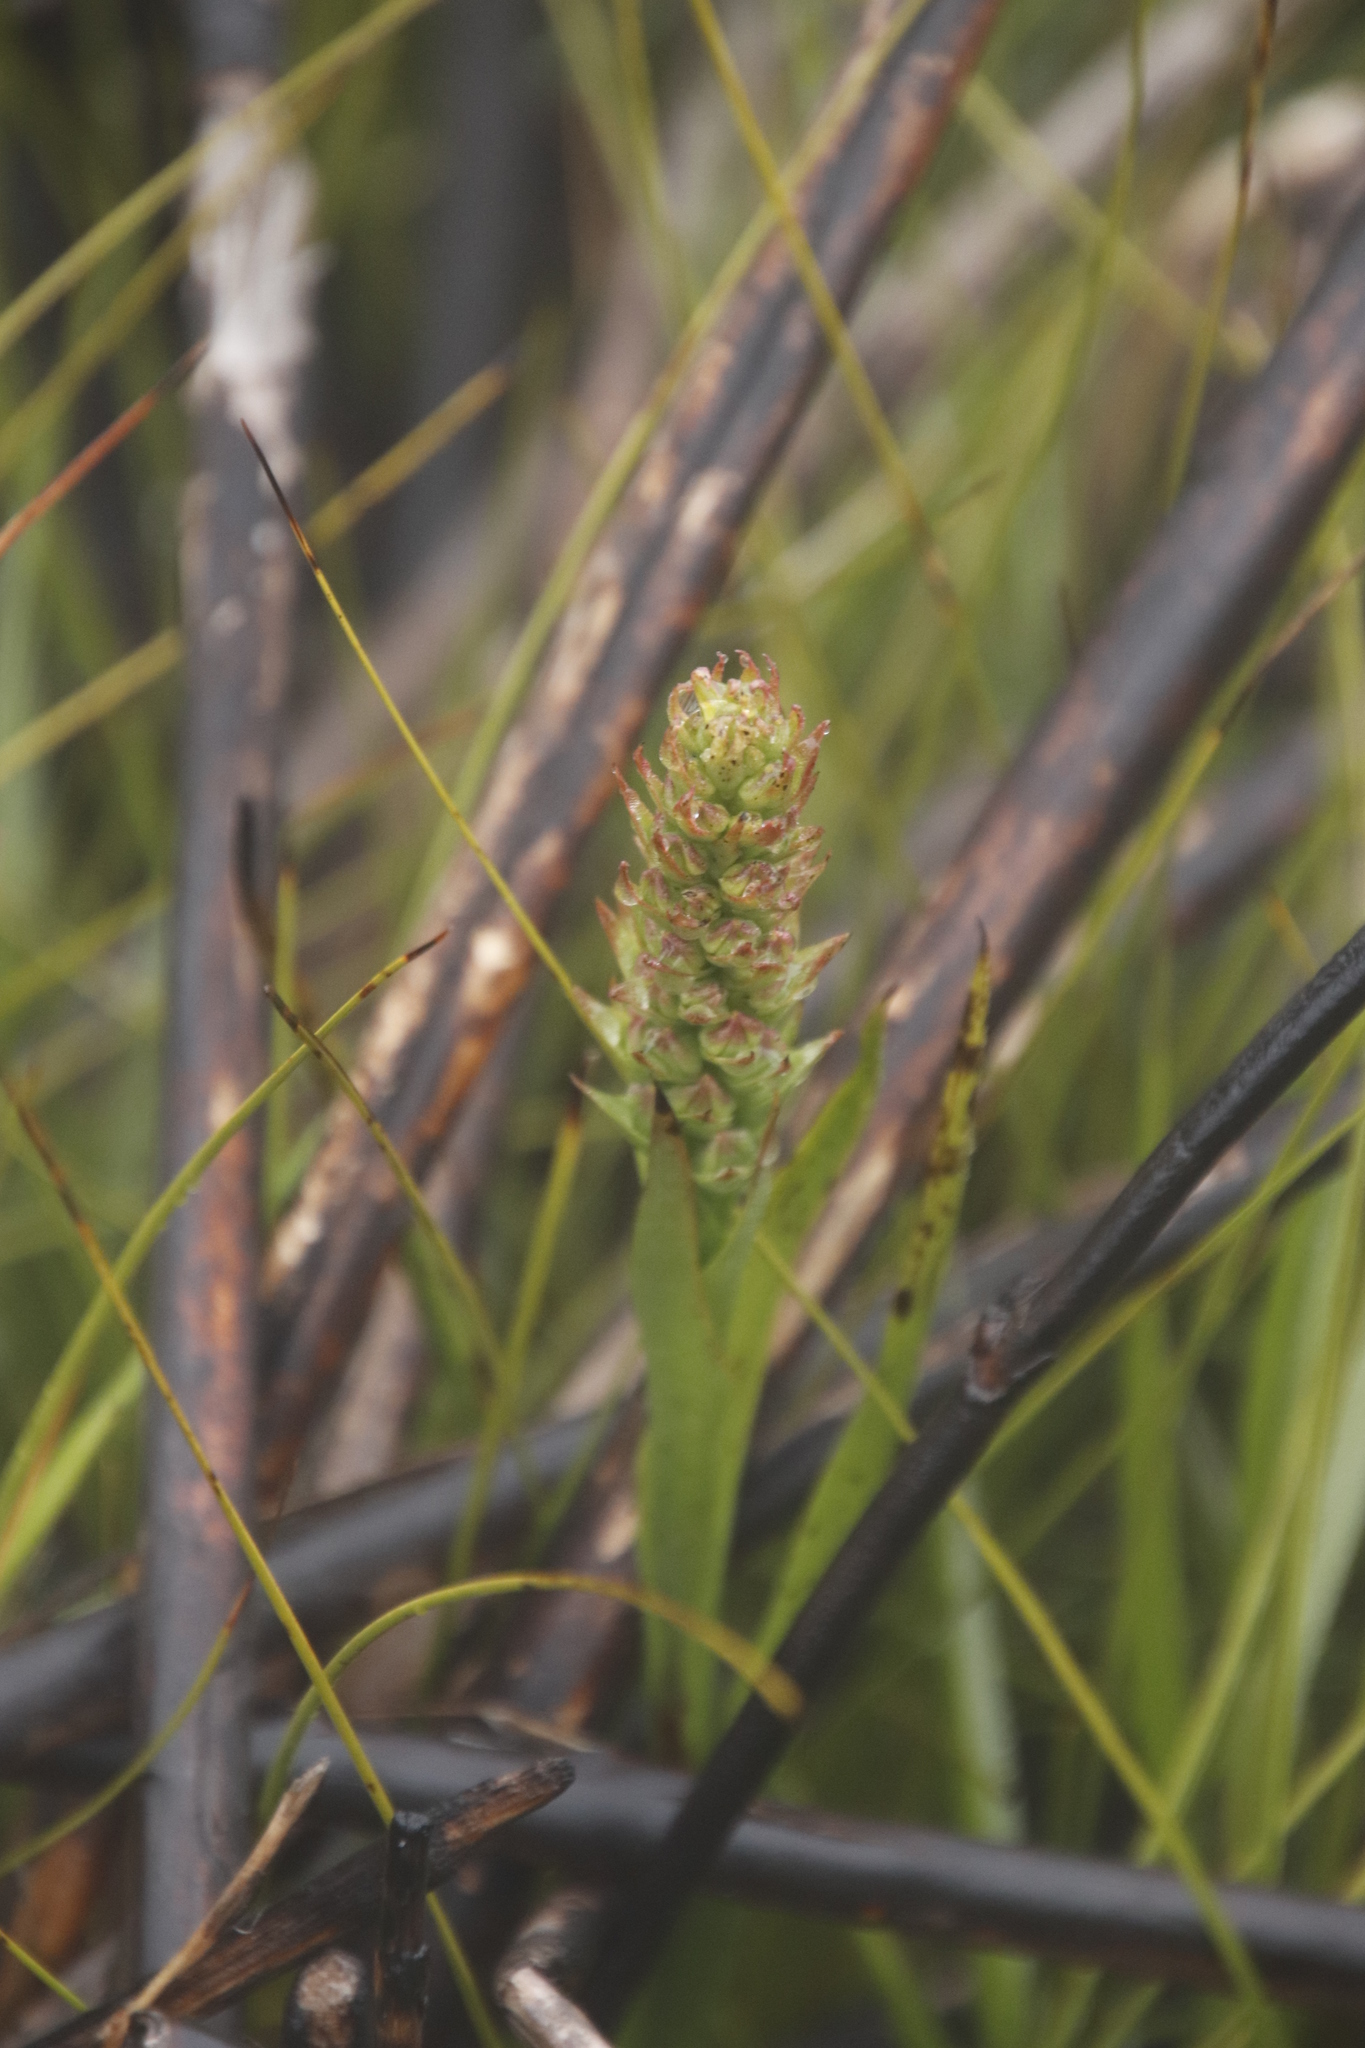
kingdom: Plantae
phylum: Tracheophyta
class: Liliopsida
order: Asparagales
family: Orchidaceae
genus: Evotella
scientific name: Evotella carnosa
